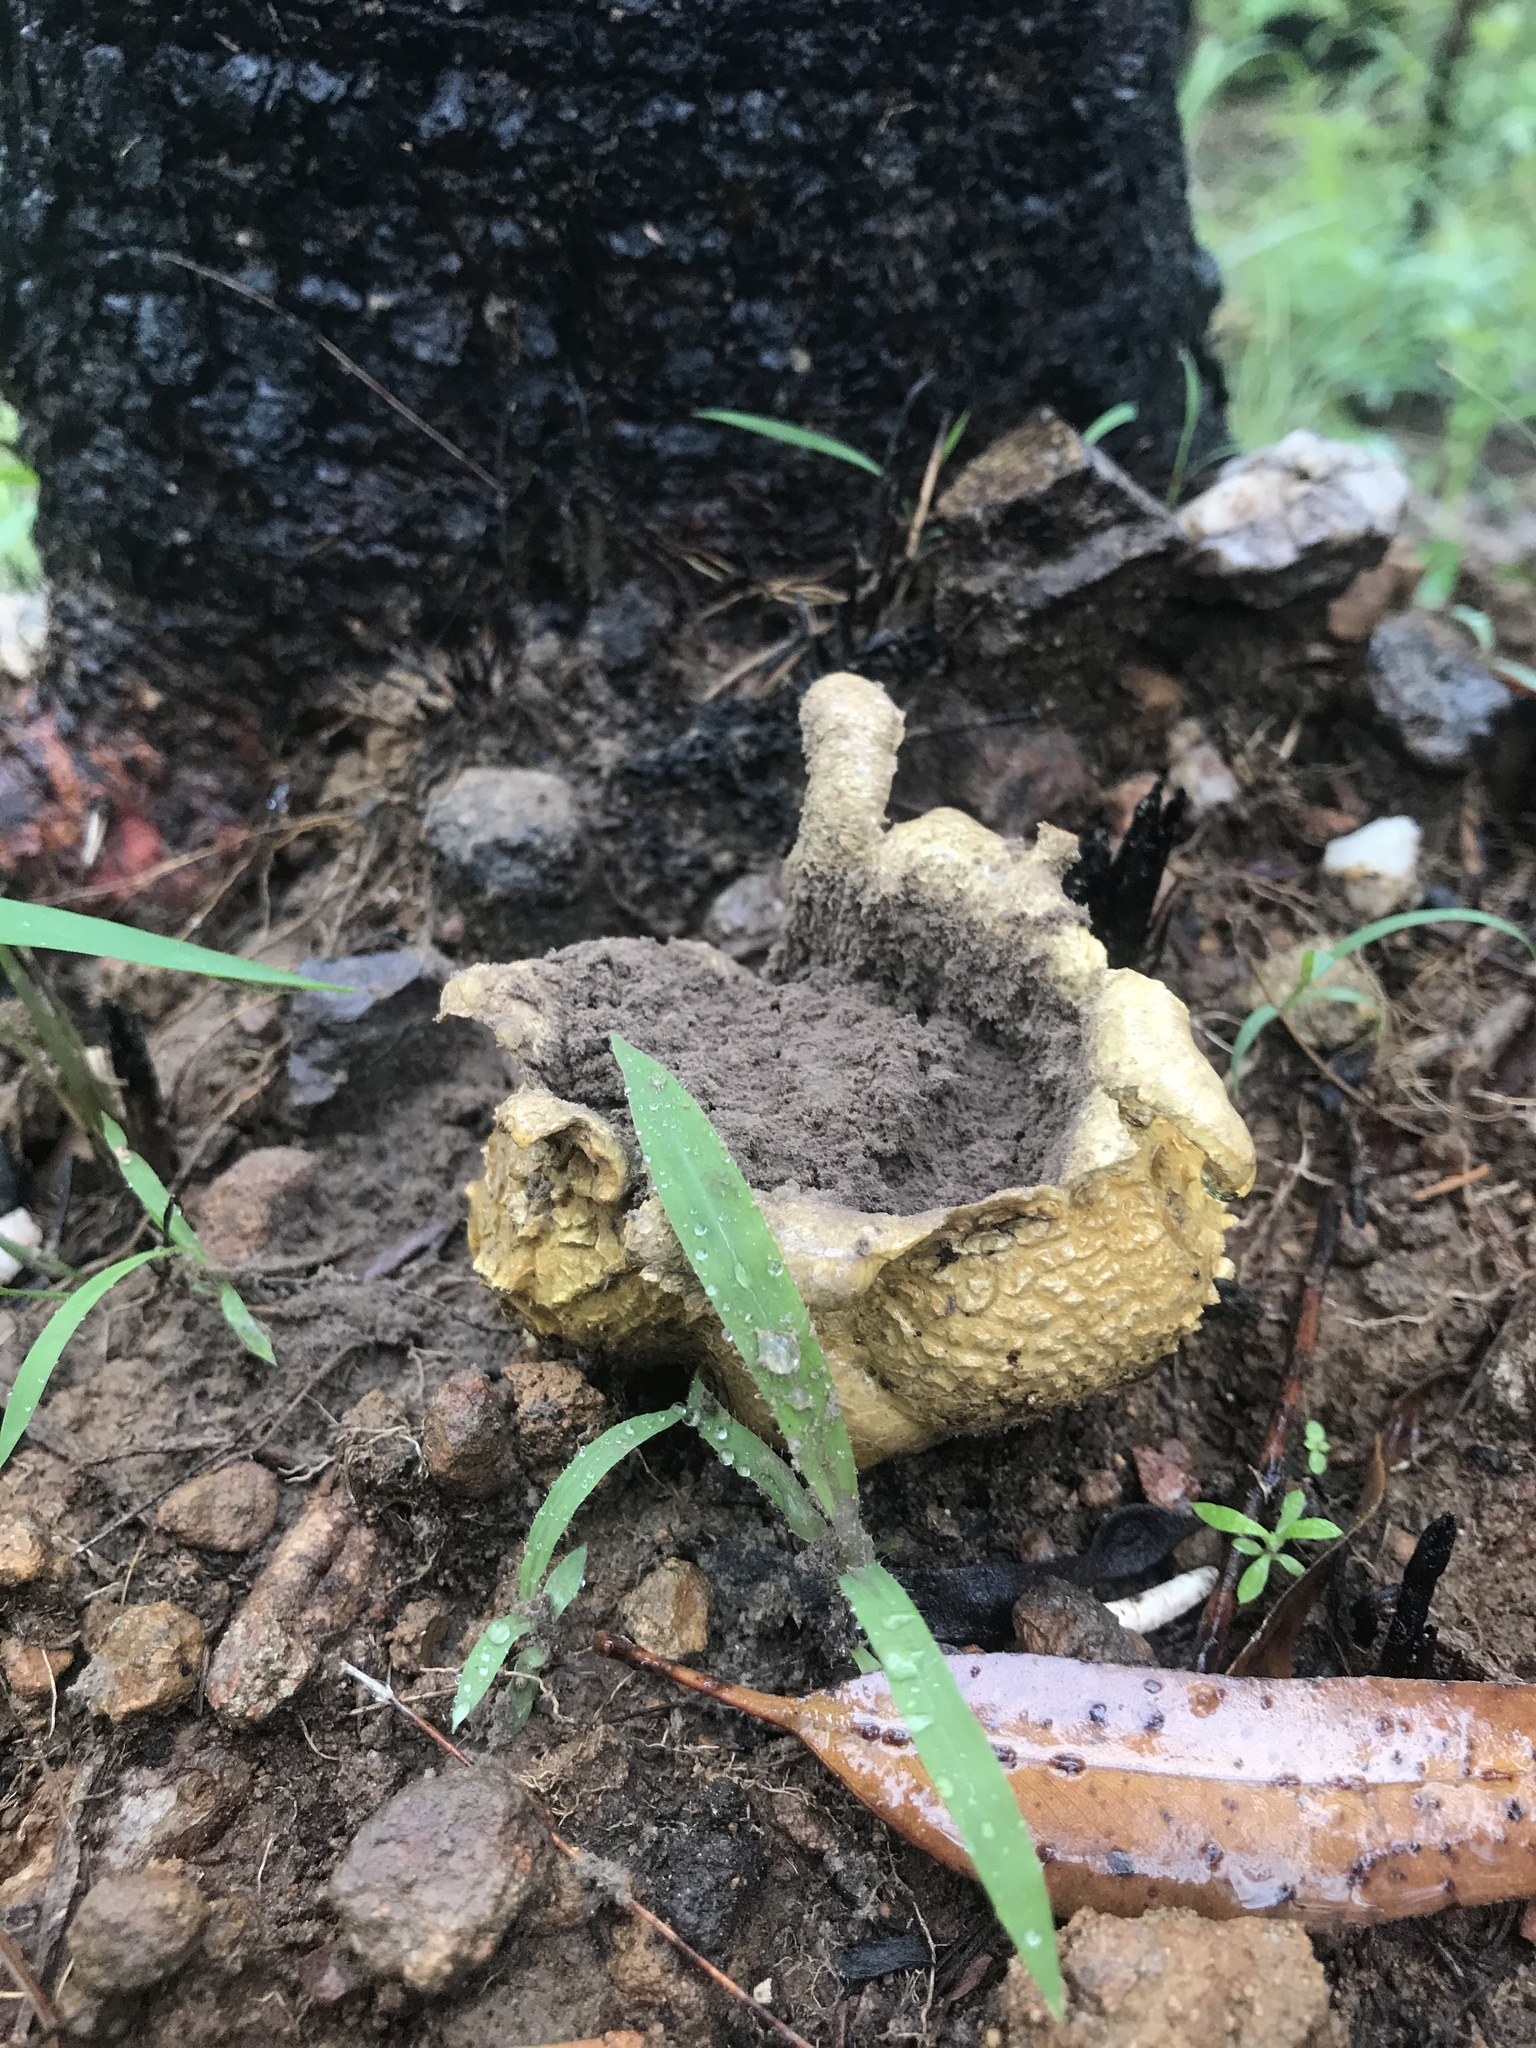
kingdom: Fungi
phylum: Basidiomycota
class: Agaricomycetes
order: Boletales
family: Sclerodermataceae
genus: Scleroderma
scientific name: Scleroderma citrinum
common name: Common earthball
